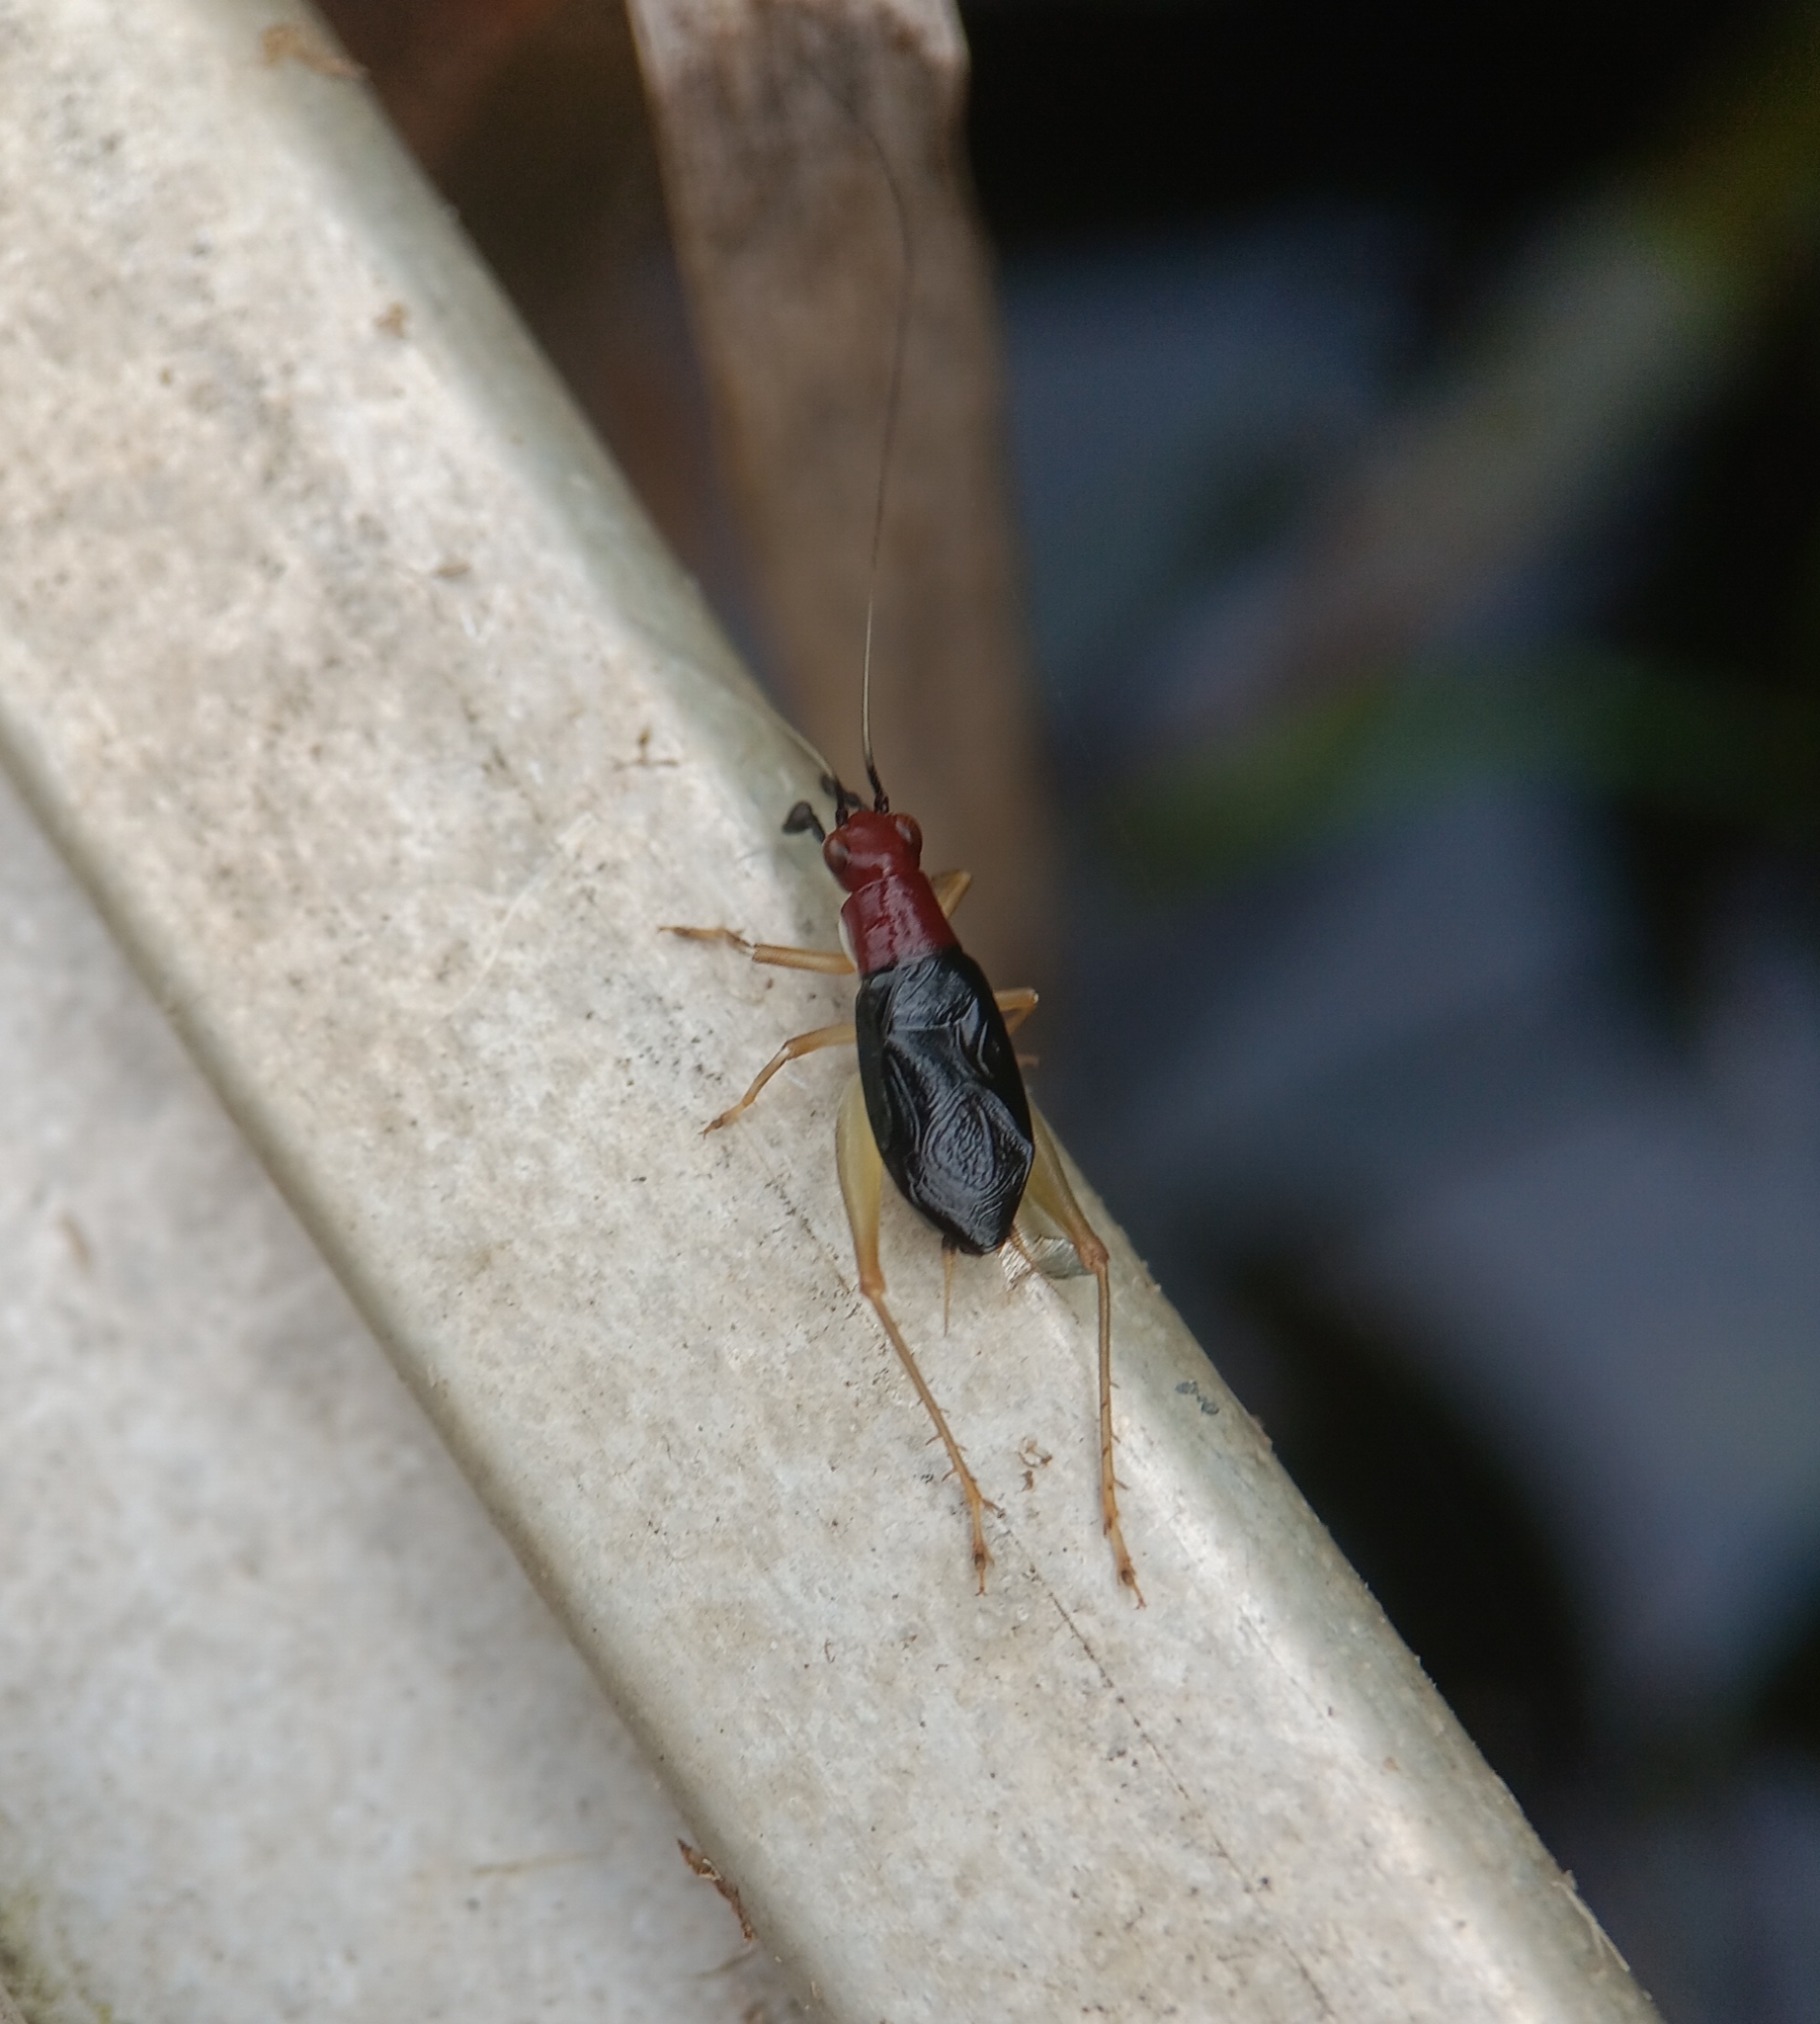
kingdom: Animalia
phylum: Arthropoda
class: Insecta
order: Orthoptera
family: Trigonidiidae
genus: Phyllopalpus
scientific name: Phyllopalpus pulchellus
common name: Handsome trig
